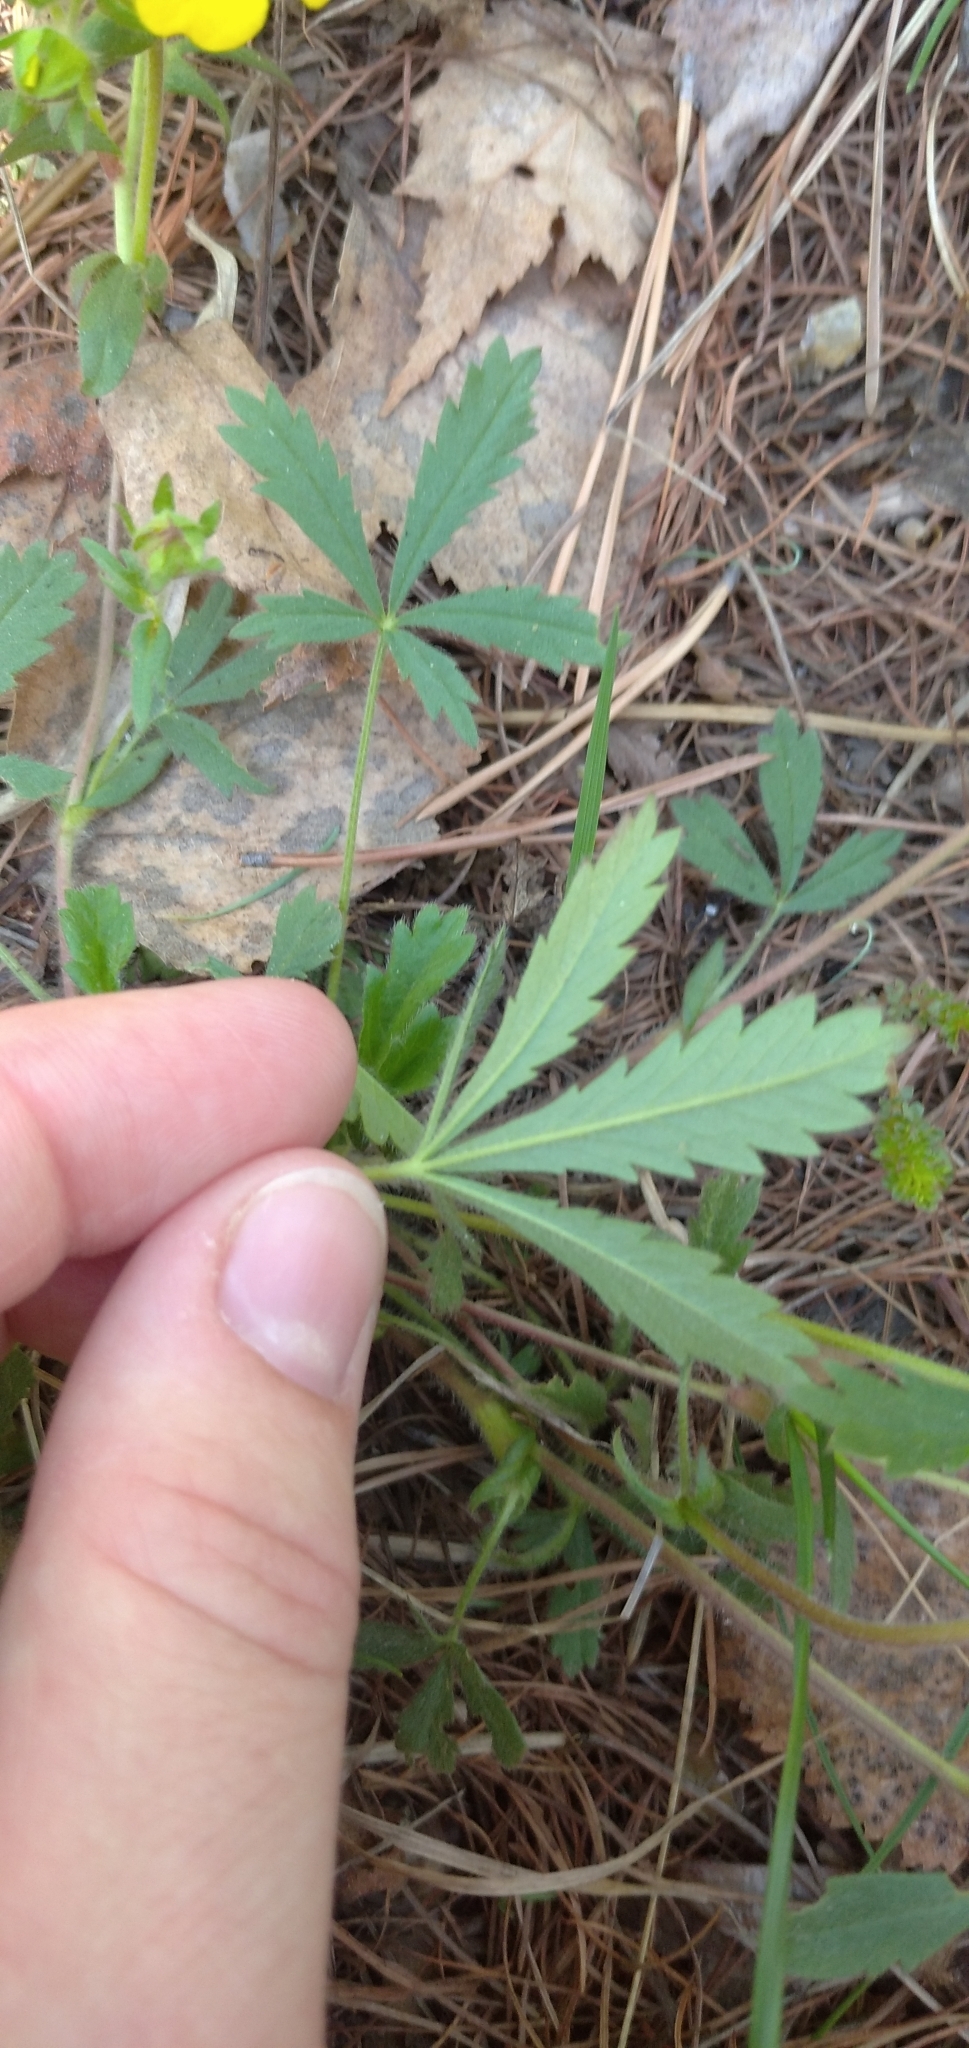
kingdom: Plantae
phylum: Tracheophyta
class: Magnoliopsida
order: Rosales
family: Rosaceae
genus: Potentilla
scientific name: Potentilla humifusa
